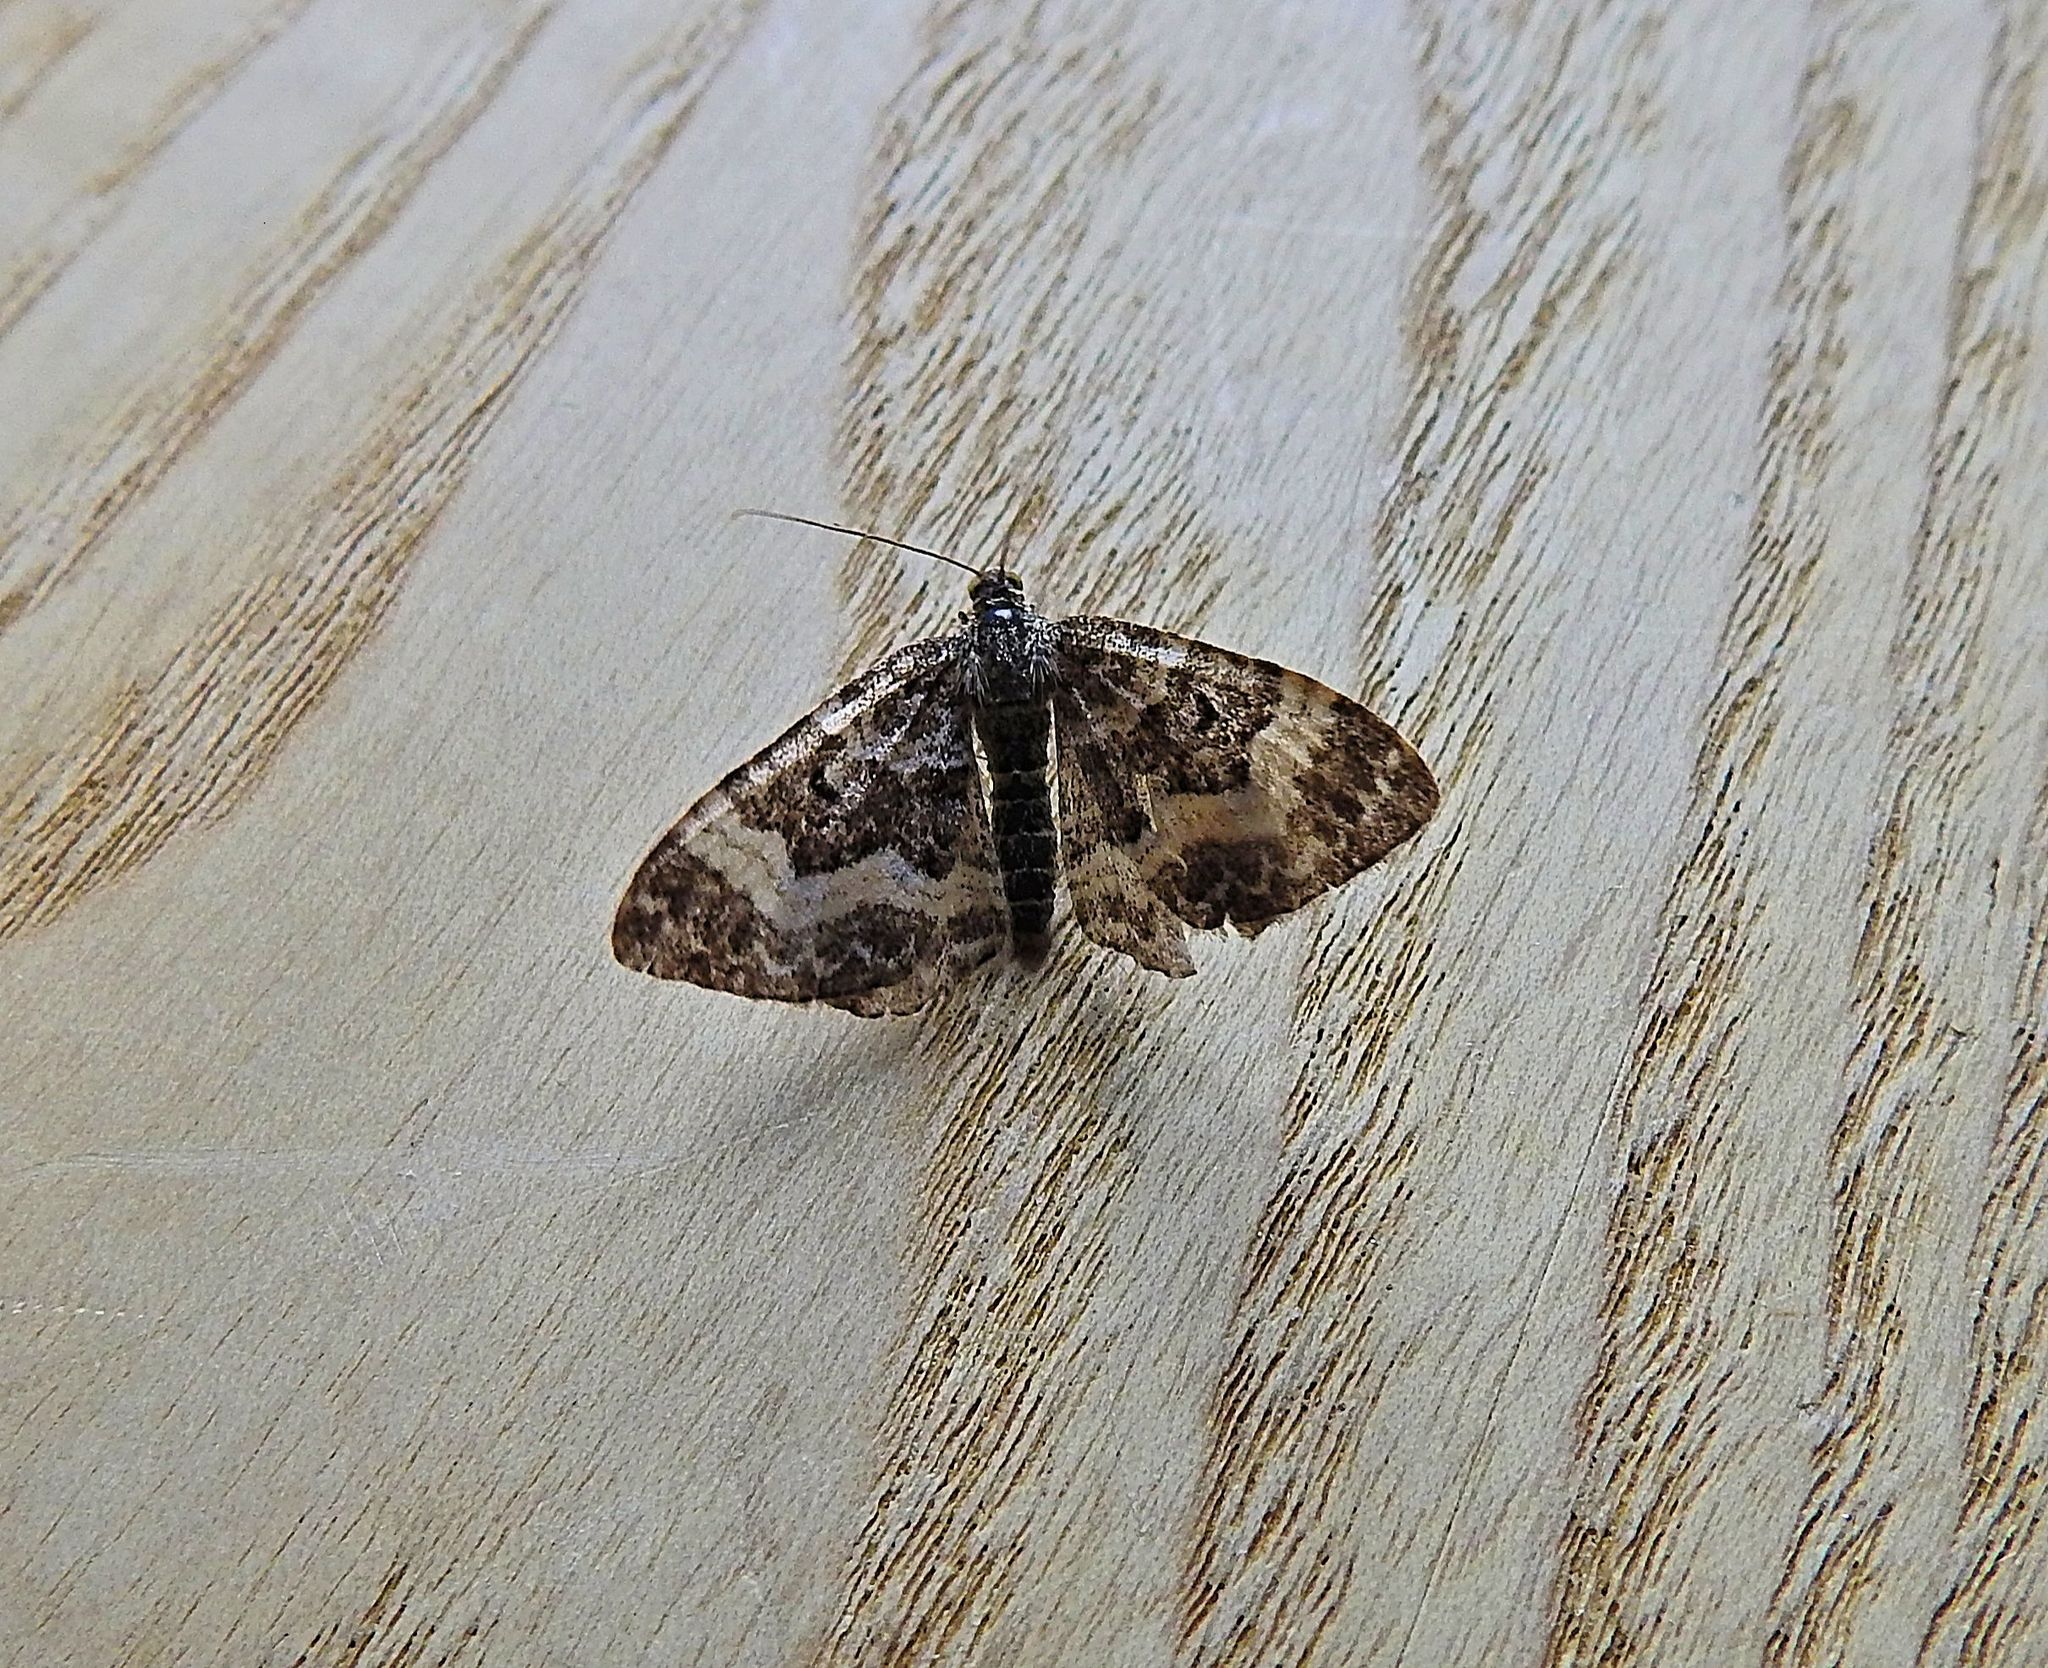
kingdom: Animalia
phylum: Arthropoda
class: Insecta
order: Lepidoptera
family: Geometridae
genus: Epirrhoe
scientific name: Epirrhoe alternata
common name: Common carpet
